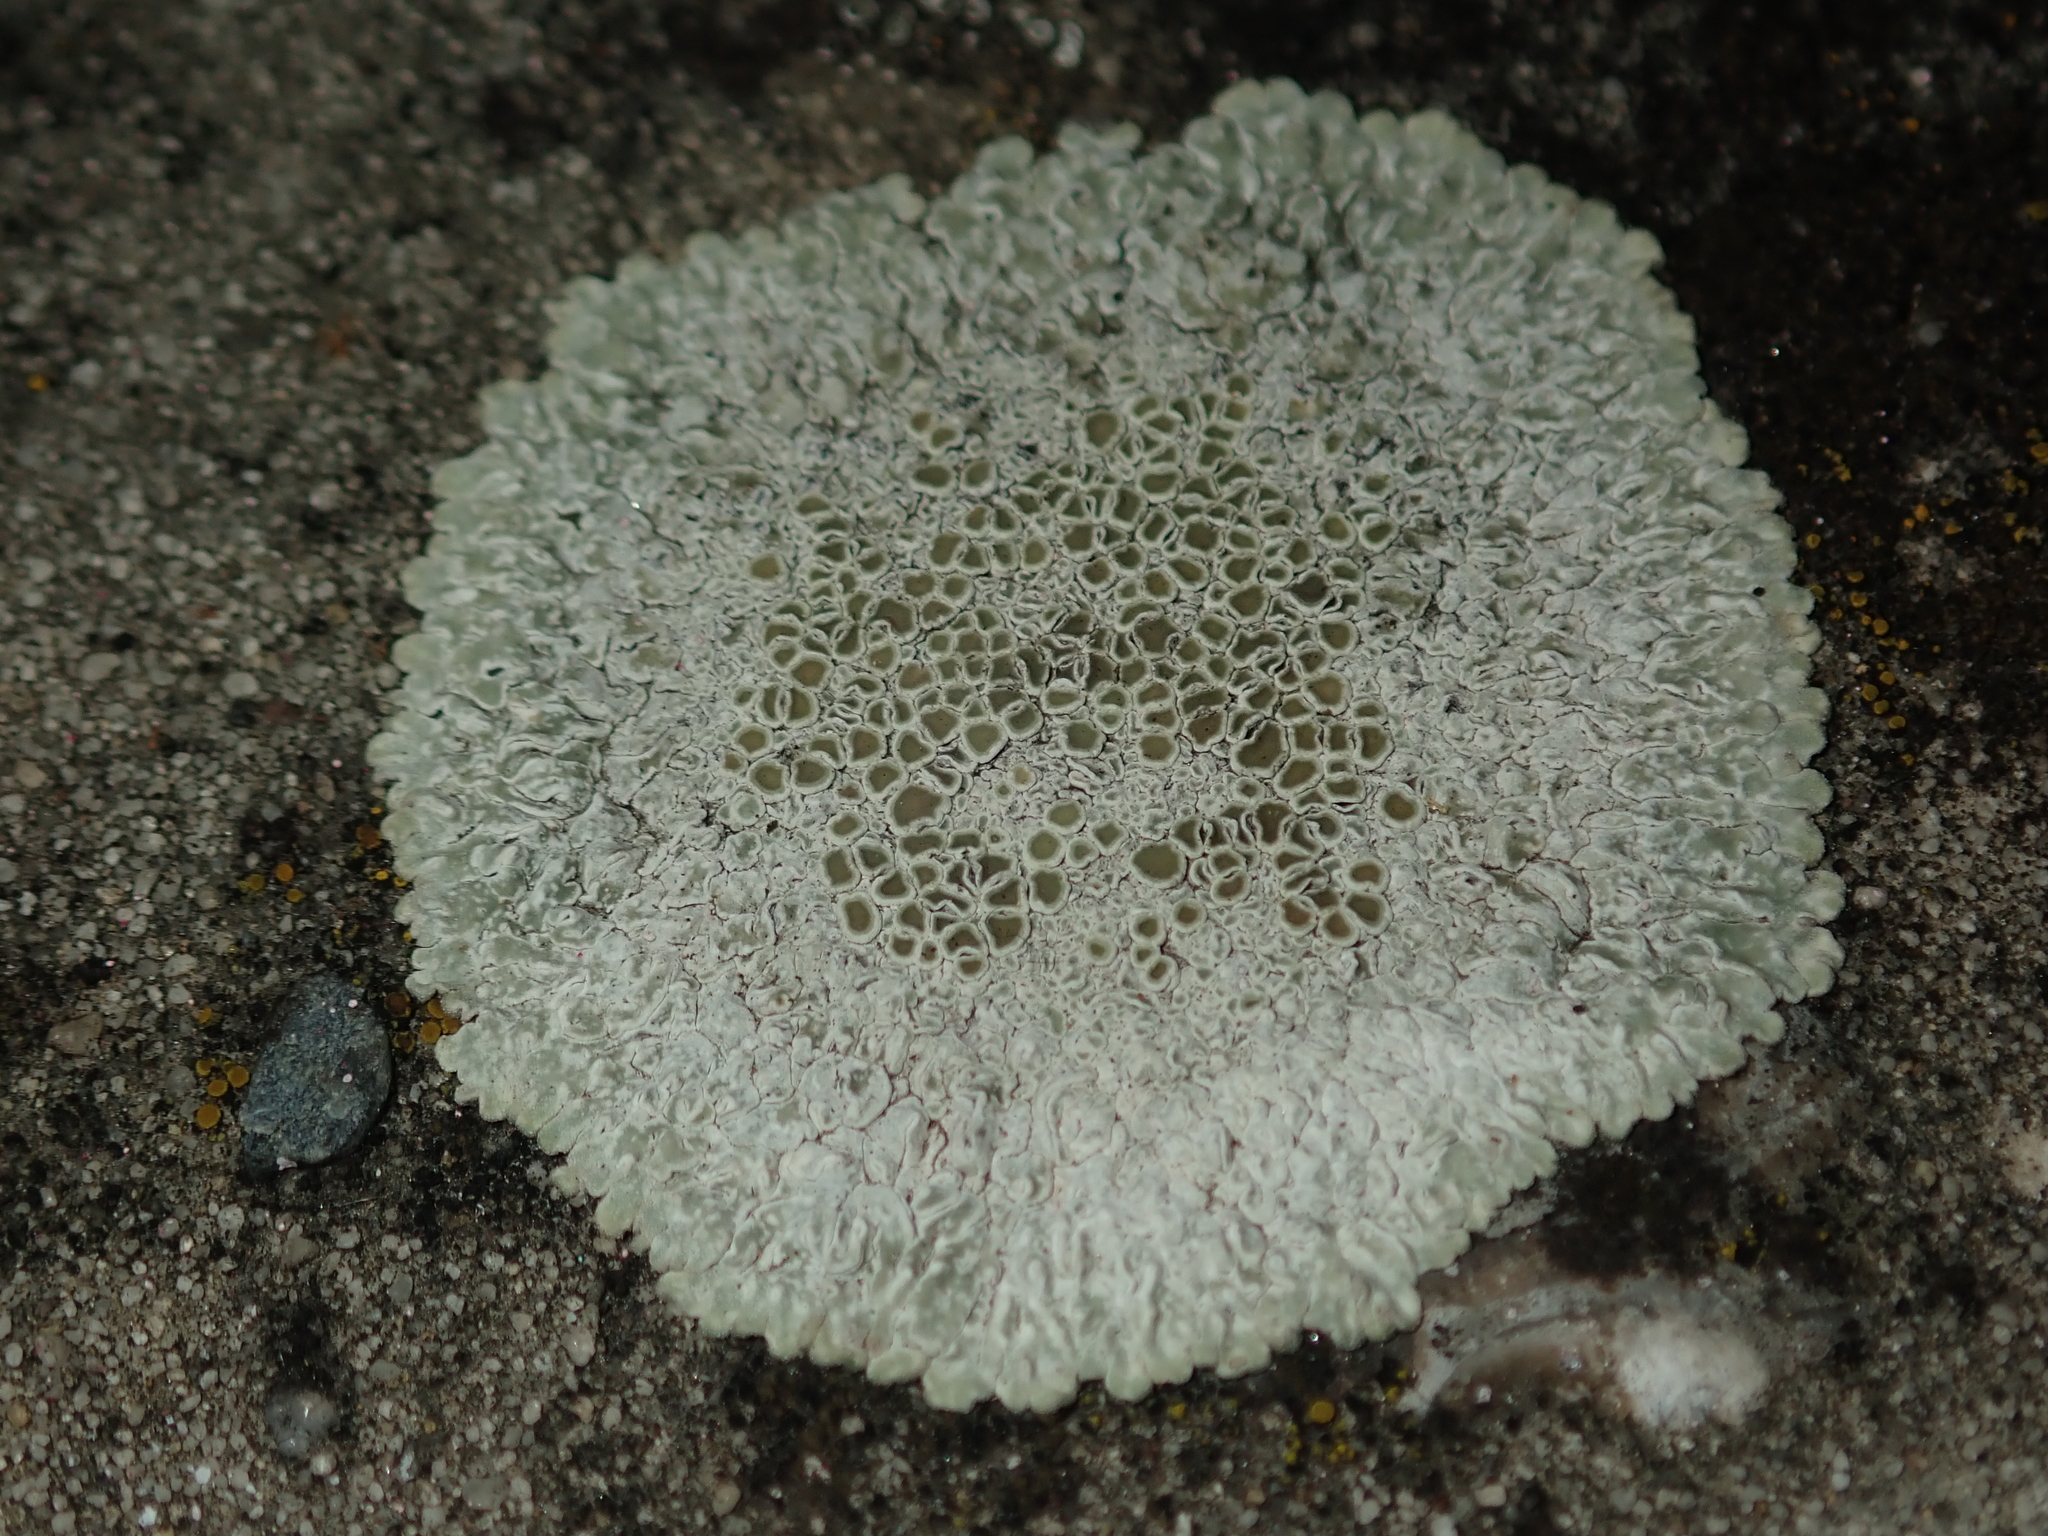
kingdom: Fungi
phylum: Ascomycota
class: Lecanoromycetes
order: Lecanorales
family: Lecanoraceae
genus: Protoparmeliopsis
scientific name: Protoparmeliopsis muralis
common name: Stonewall rim lichen
